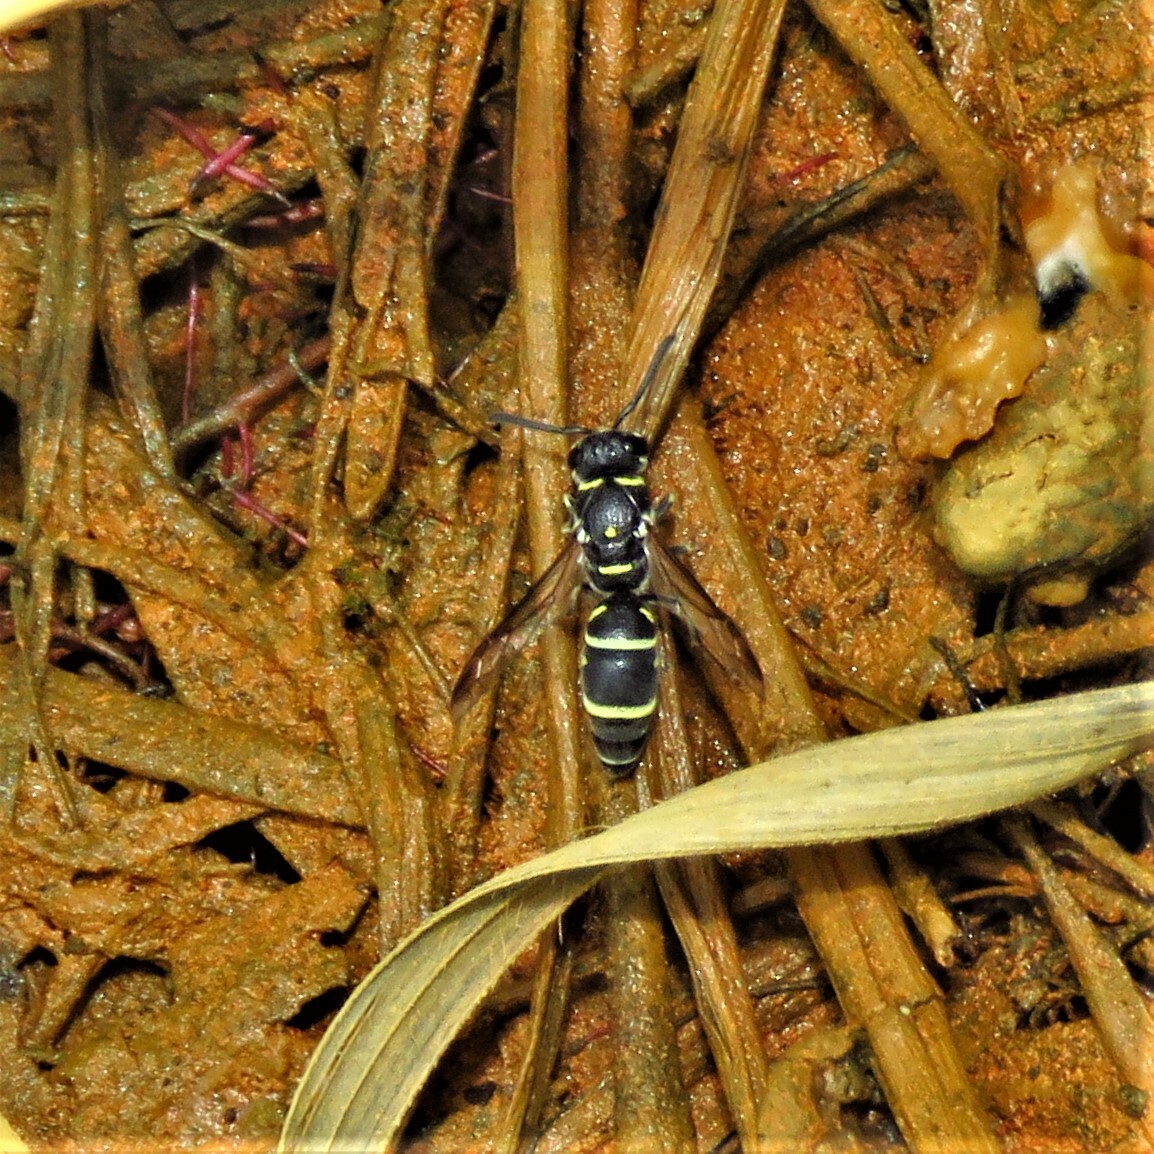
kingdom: Animalia
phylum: Arthropoda
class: Insecta
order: Hymenoptera
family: Eumenidae
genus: Parancistrocerus
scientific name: Parancistrocerus minimoferus
